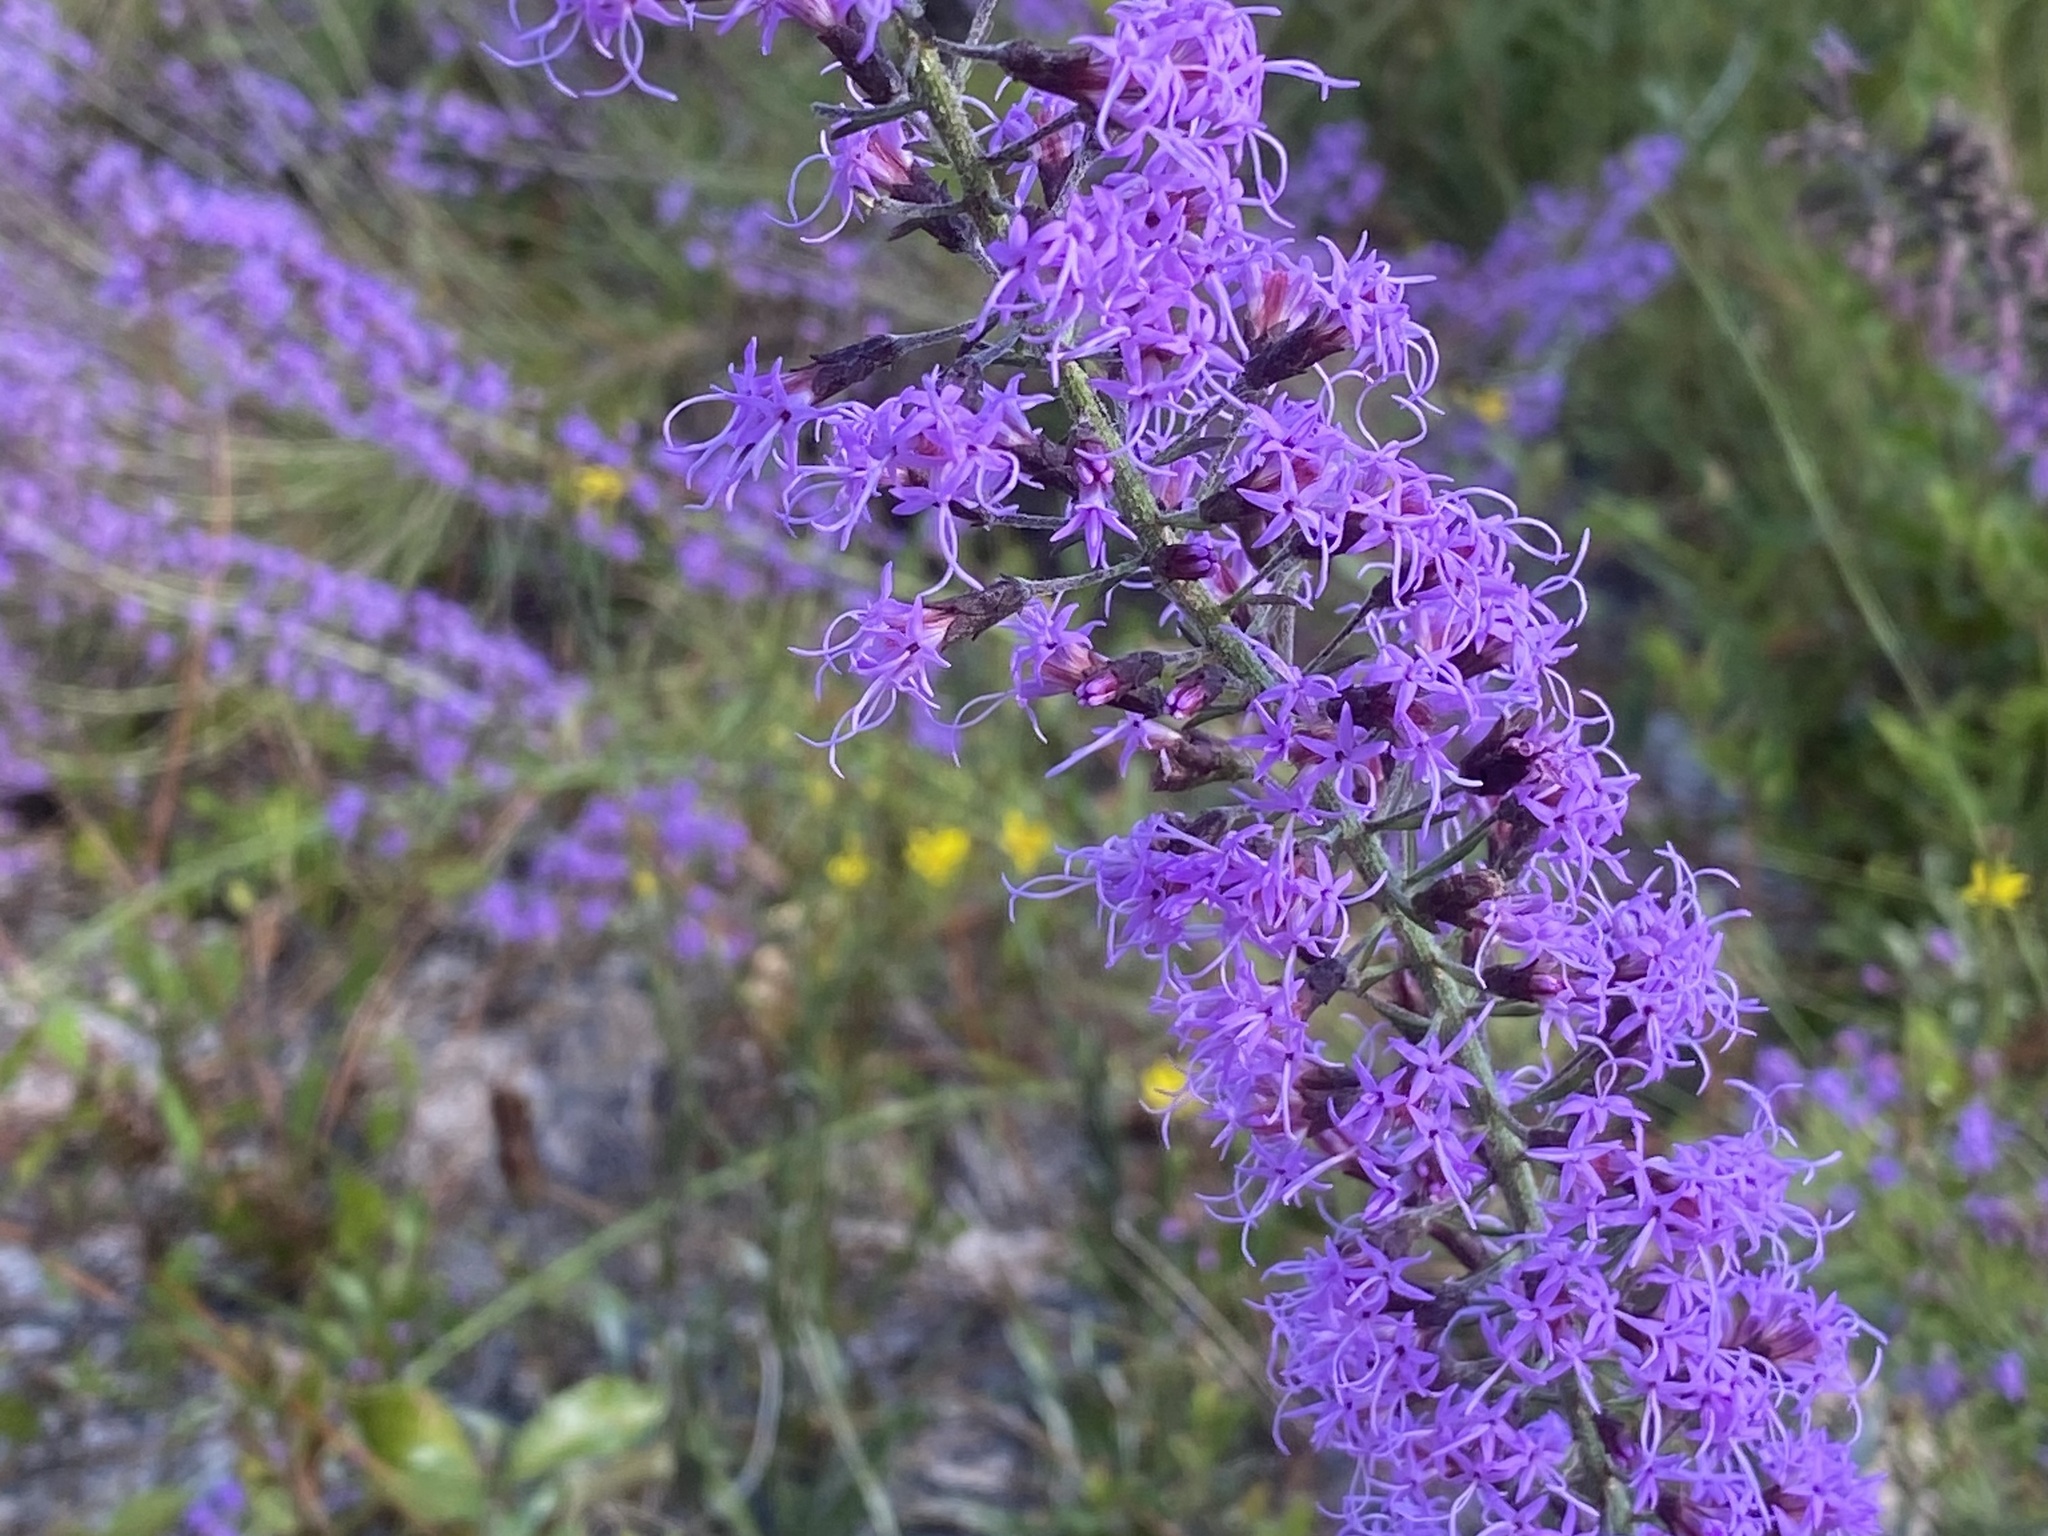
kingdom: Plantae
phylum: Tracheophyta
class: Magnoliopsida
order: Asterales
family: Asteraceae
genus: Liatris
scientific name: Liatris gracilis
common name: Slender gayfeather
